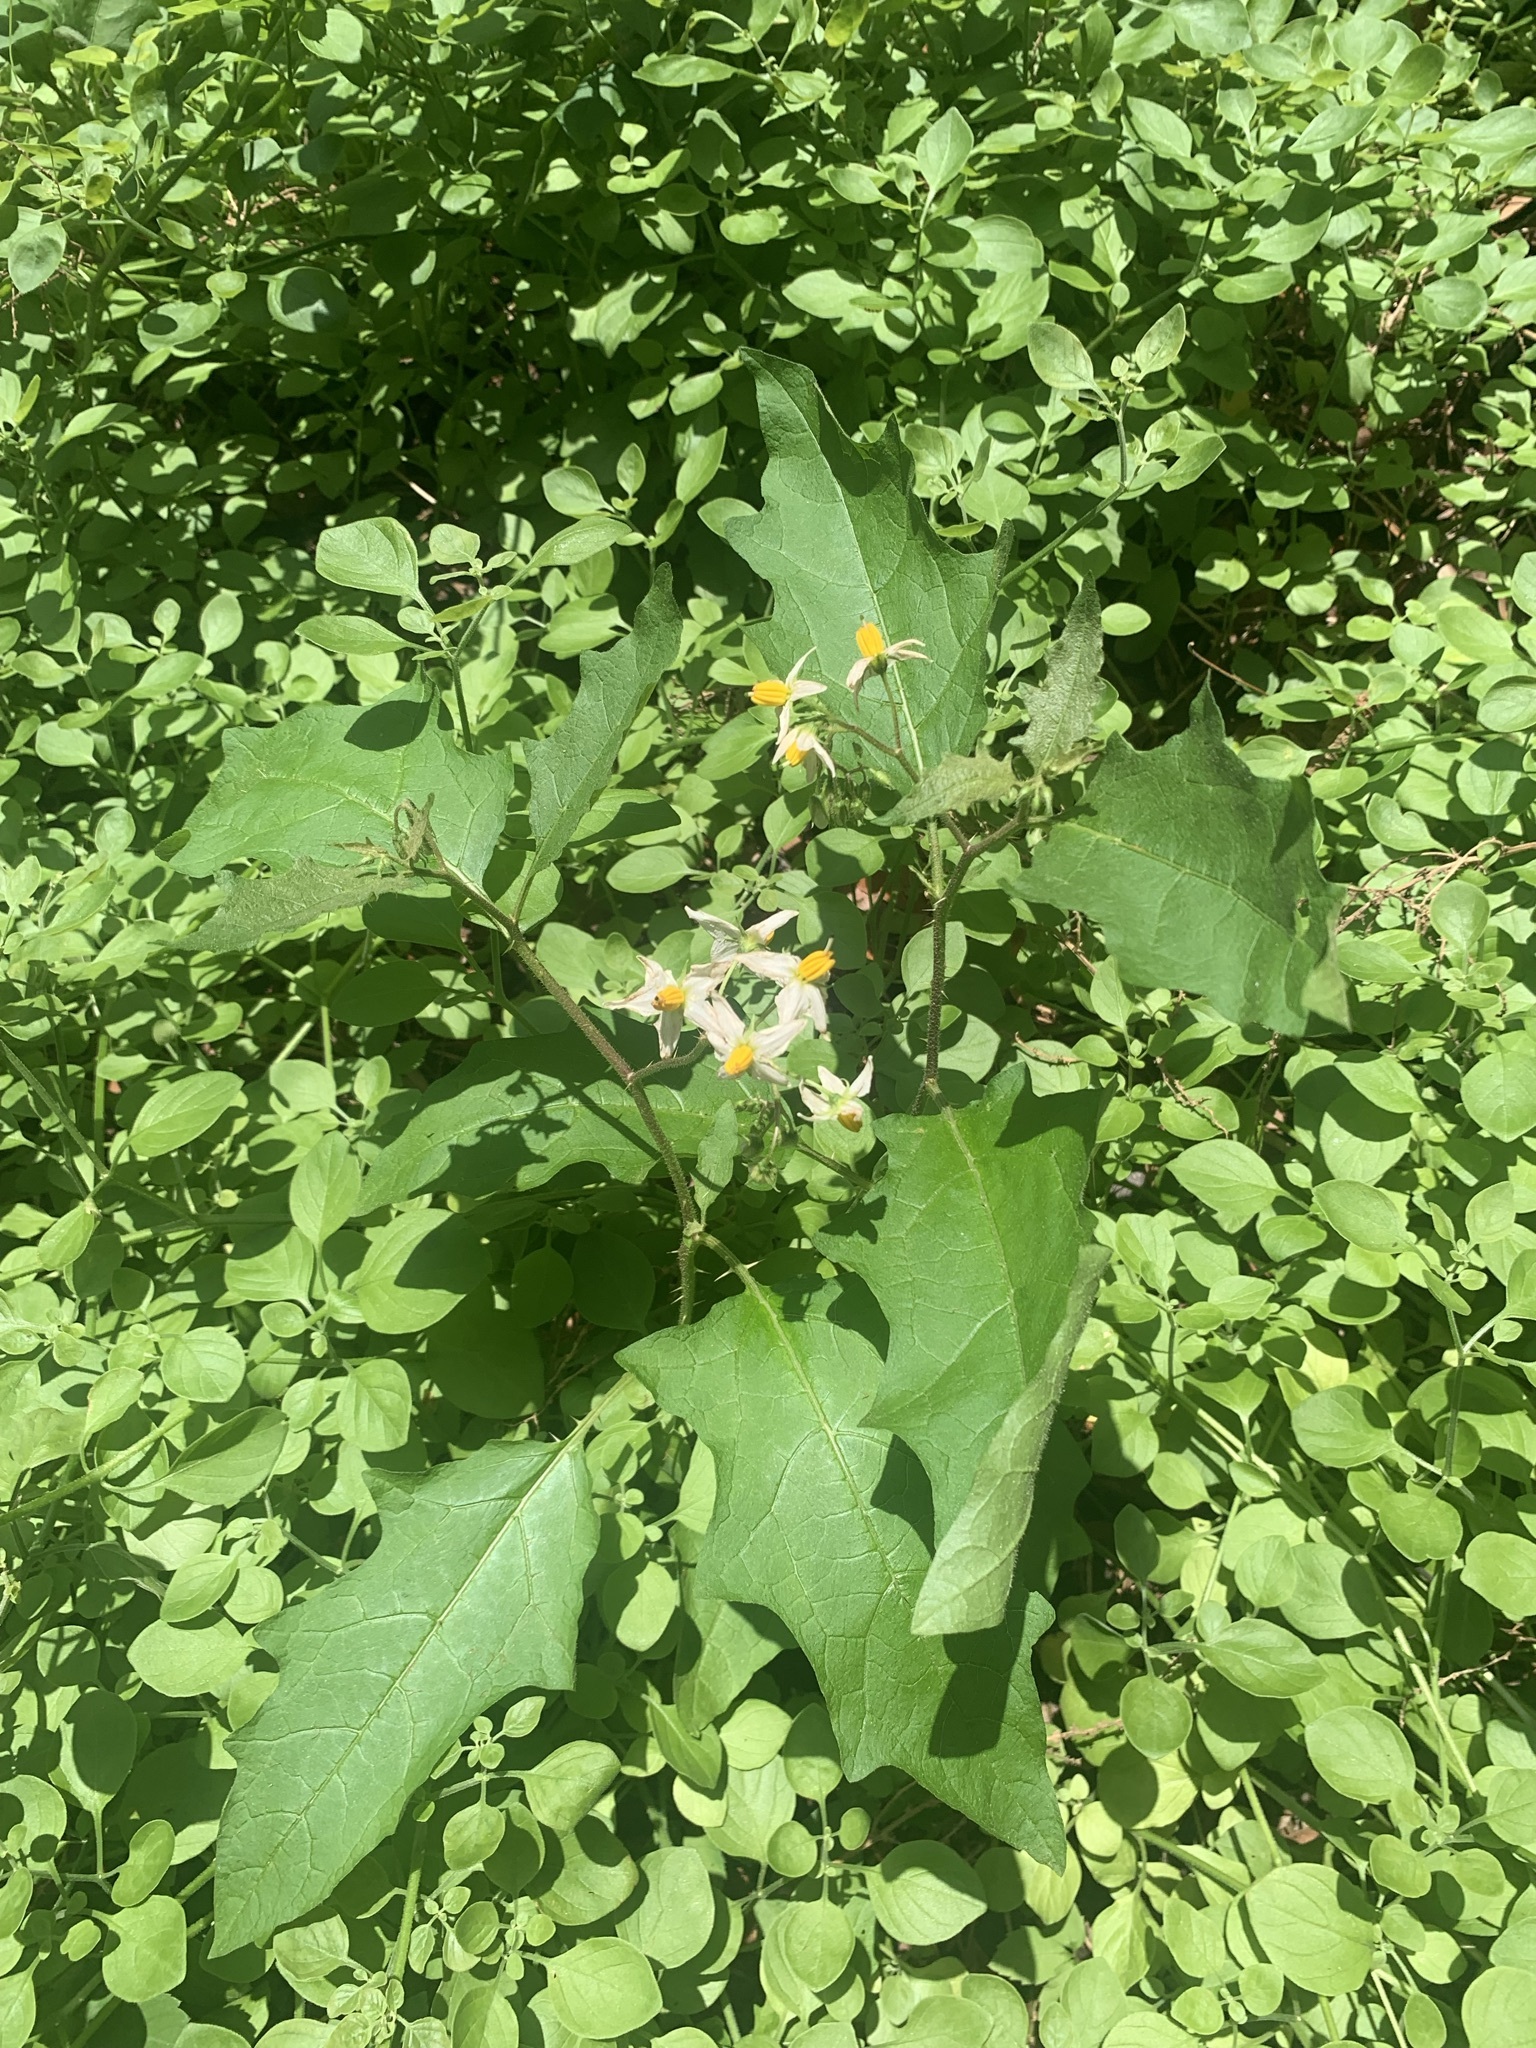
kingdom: Plantae
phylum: Tracheophyta
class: Magnoliopsida
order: Solanales
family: Solanaceae
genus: Solanum
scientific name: Solanum carolinense
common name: Horse-nettle
